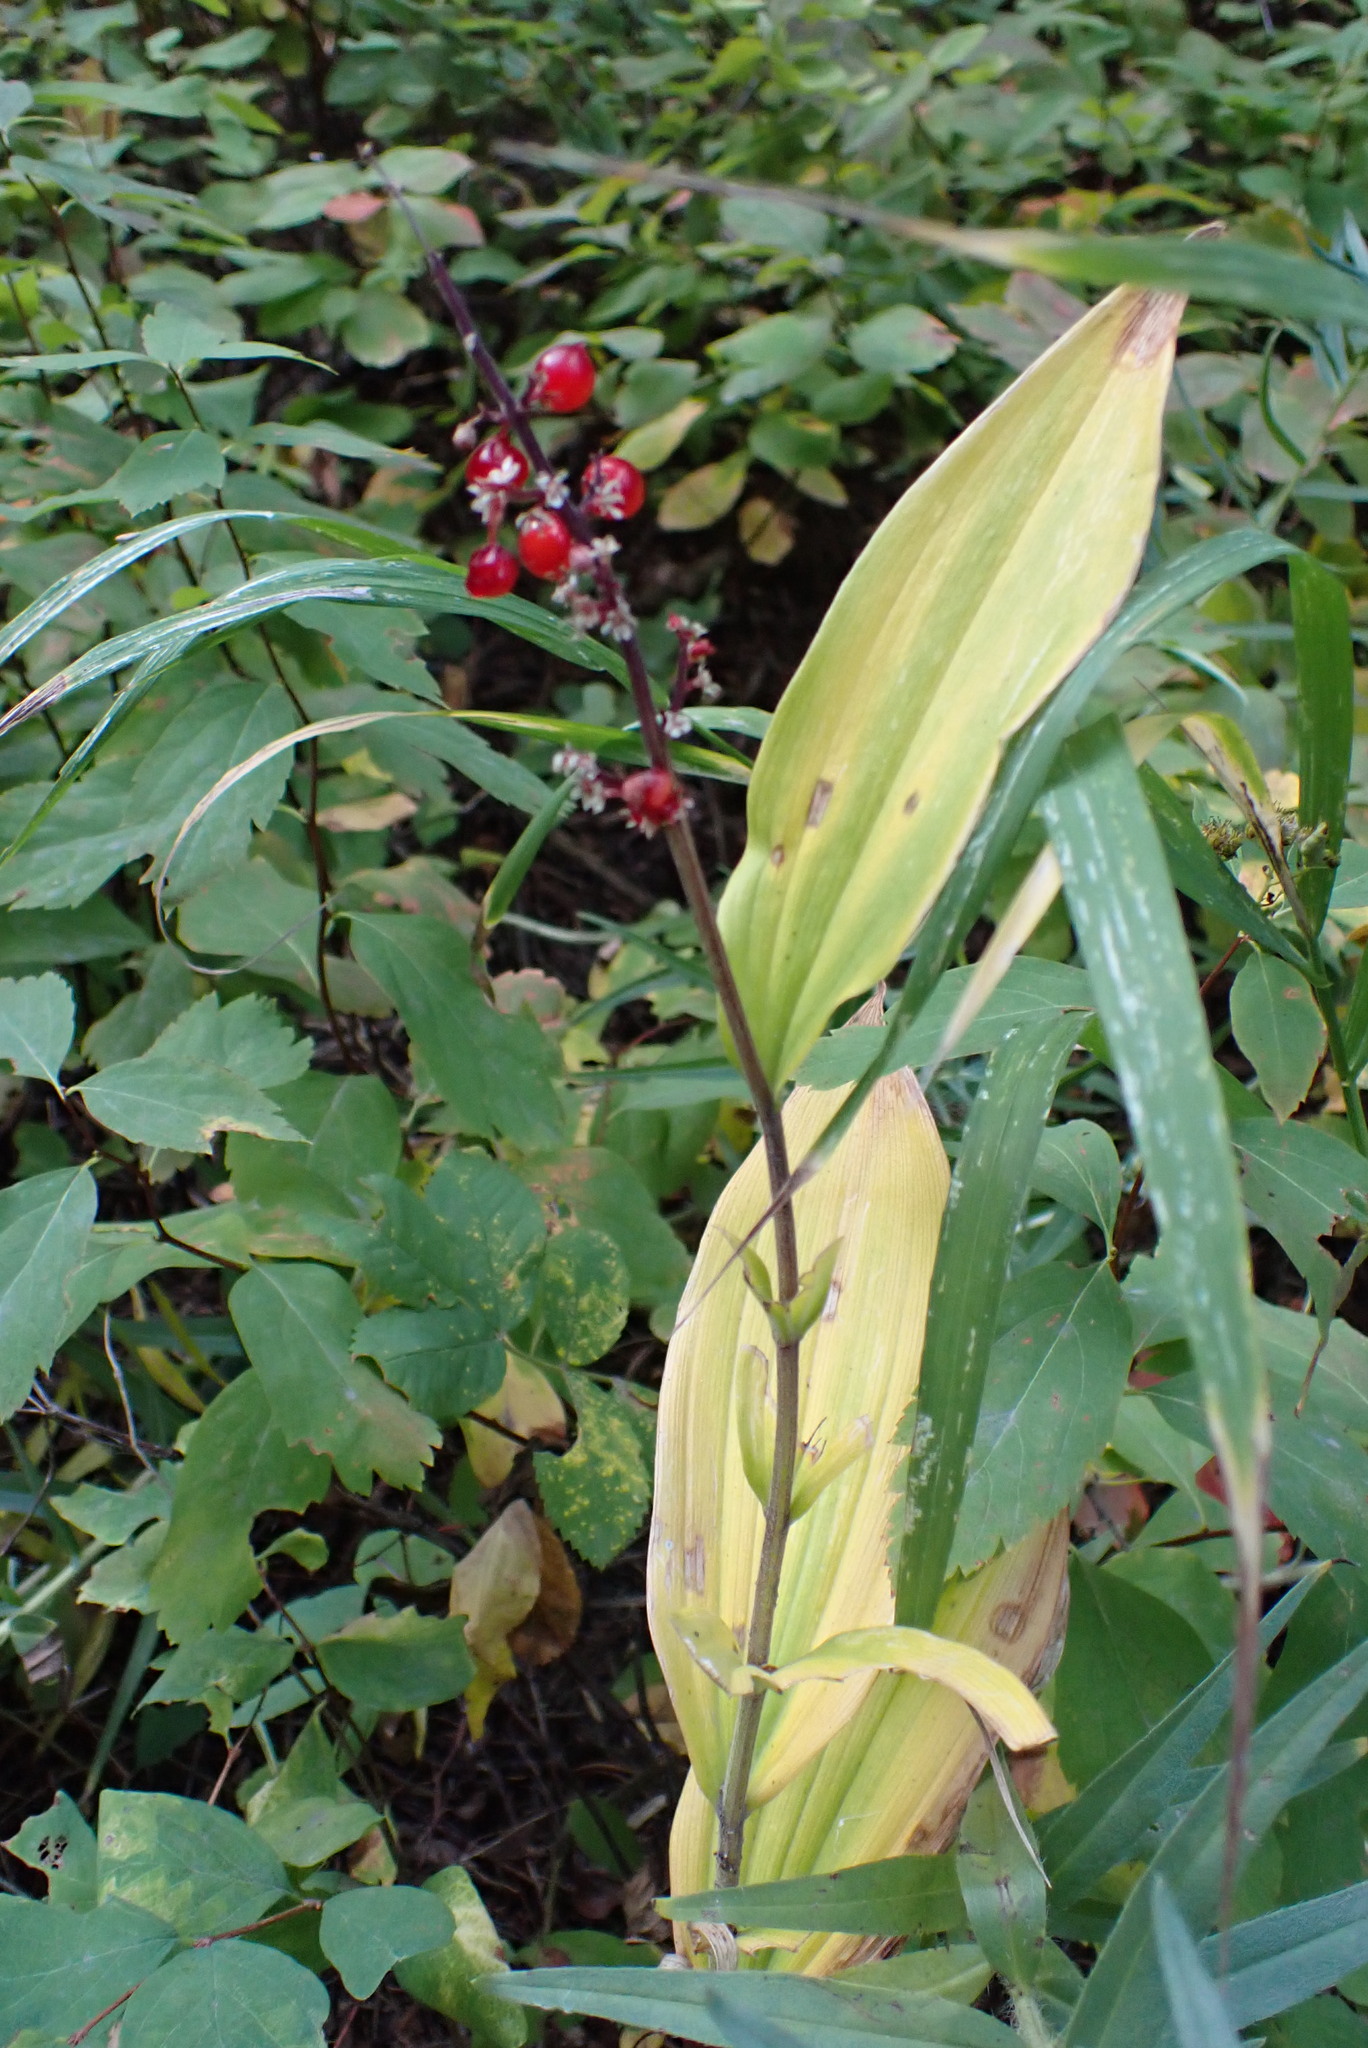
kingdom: Plantae
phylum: Tracheophyta
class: Liliopsida
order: Asparagales
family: Asparagaceae
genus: Maianthemum
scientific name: Maianthemum racemosum
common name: False spikenard
